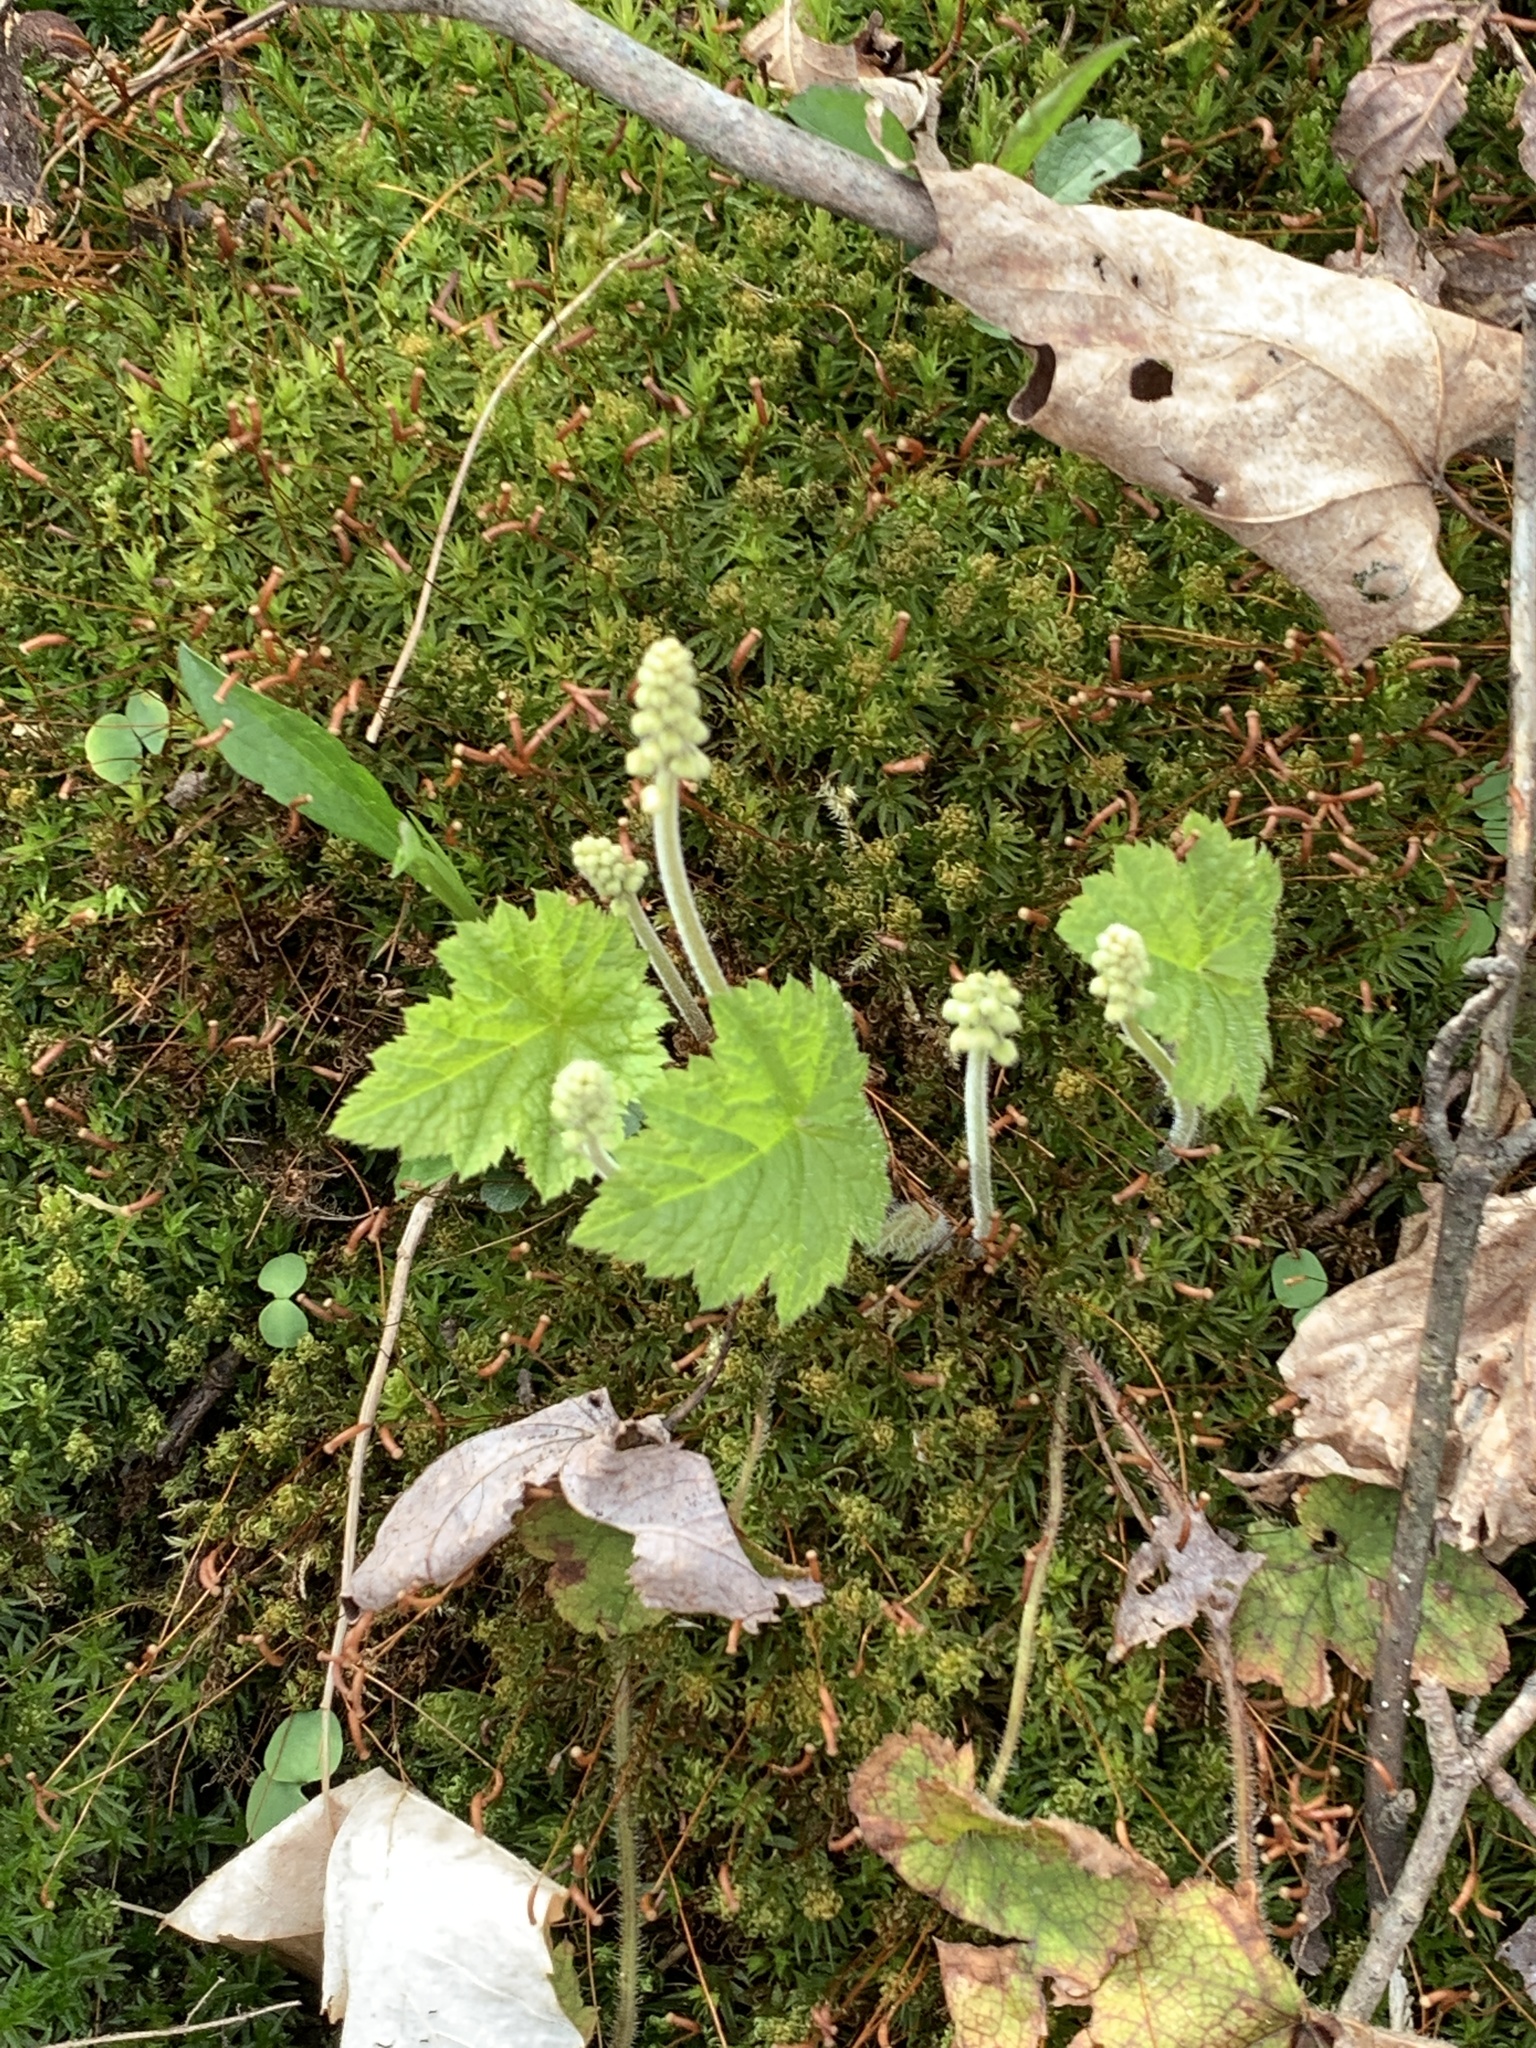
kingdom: Plantae
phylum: Tracheophyta
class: Magnoliopsida
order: Saxifragales
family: Saxifragaceae
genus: Tiarella
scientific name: Tiarella stolonifera
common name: Stoloniferous foamflower
